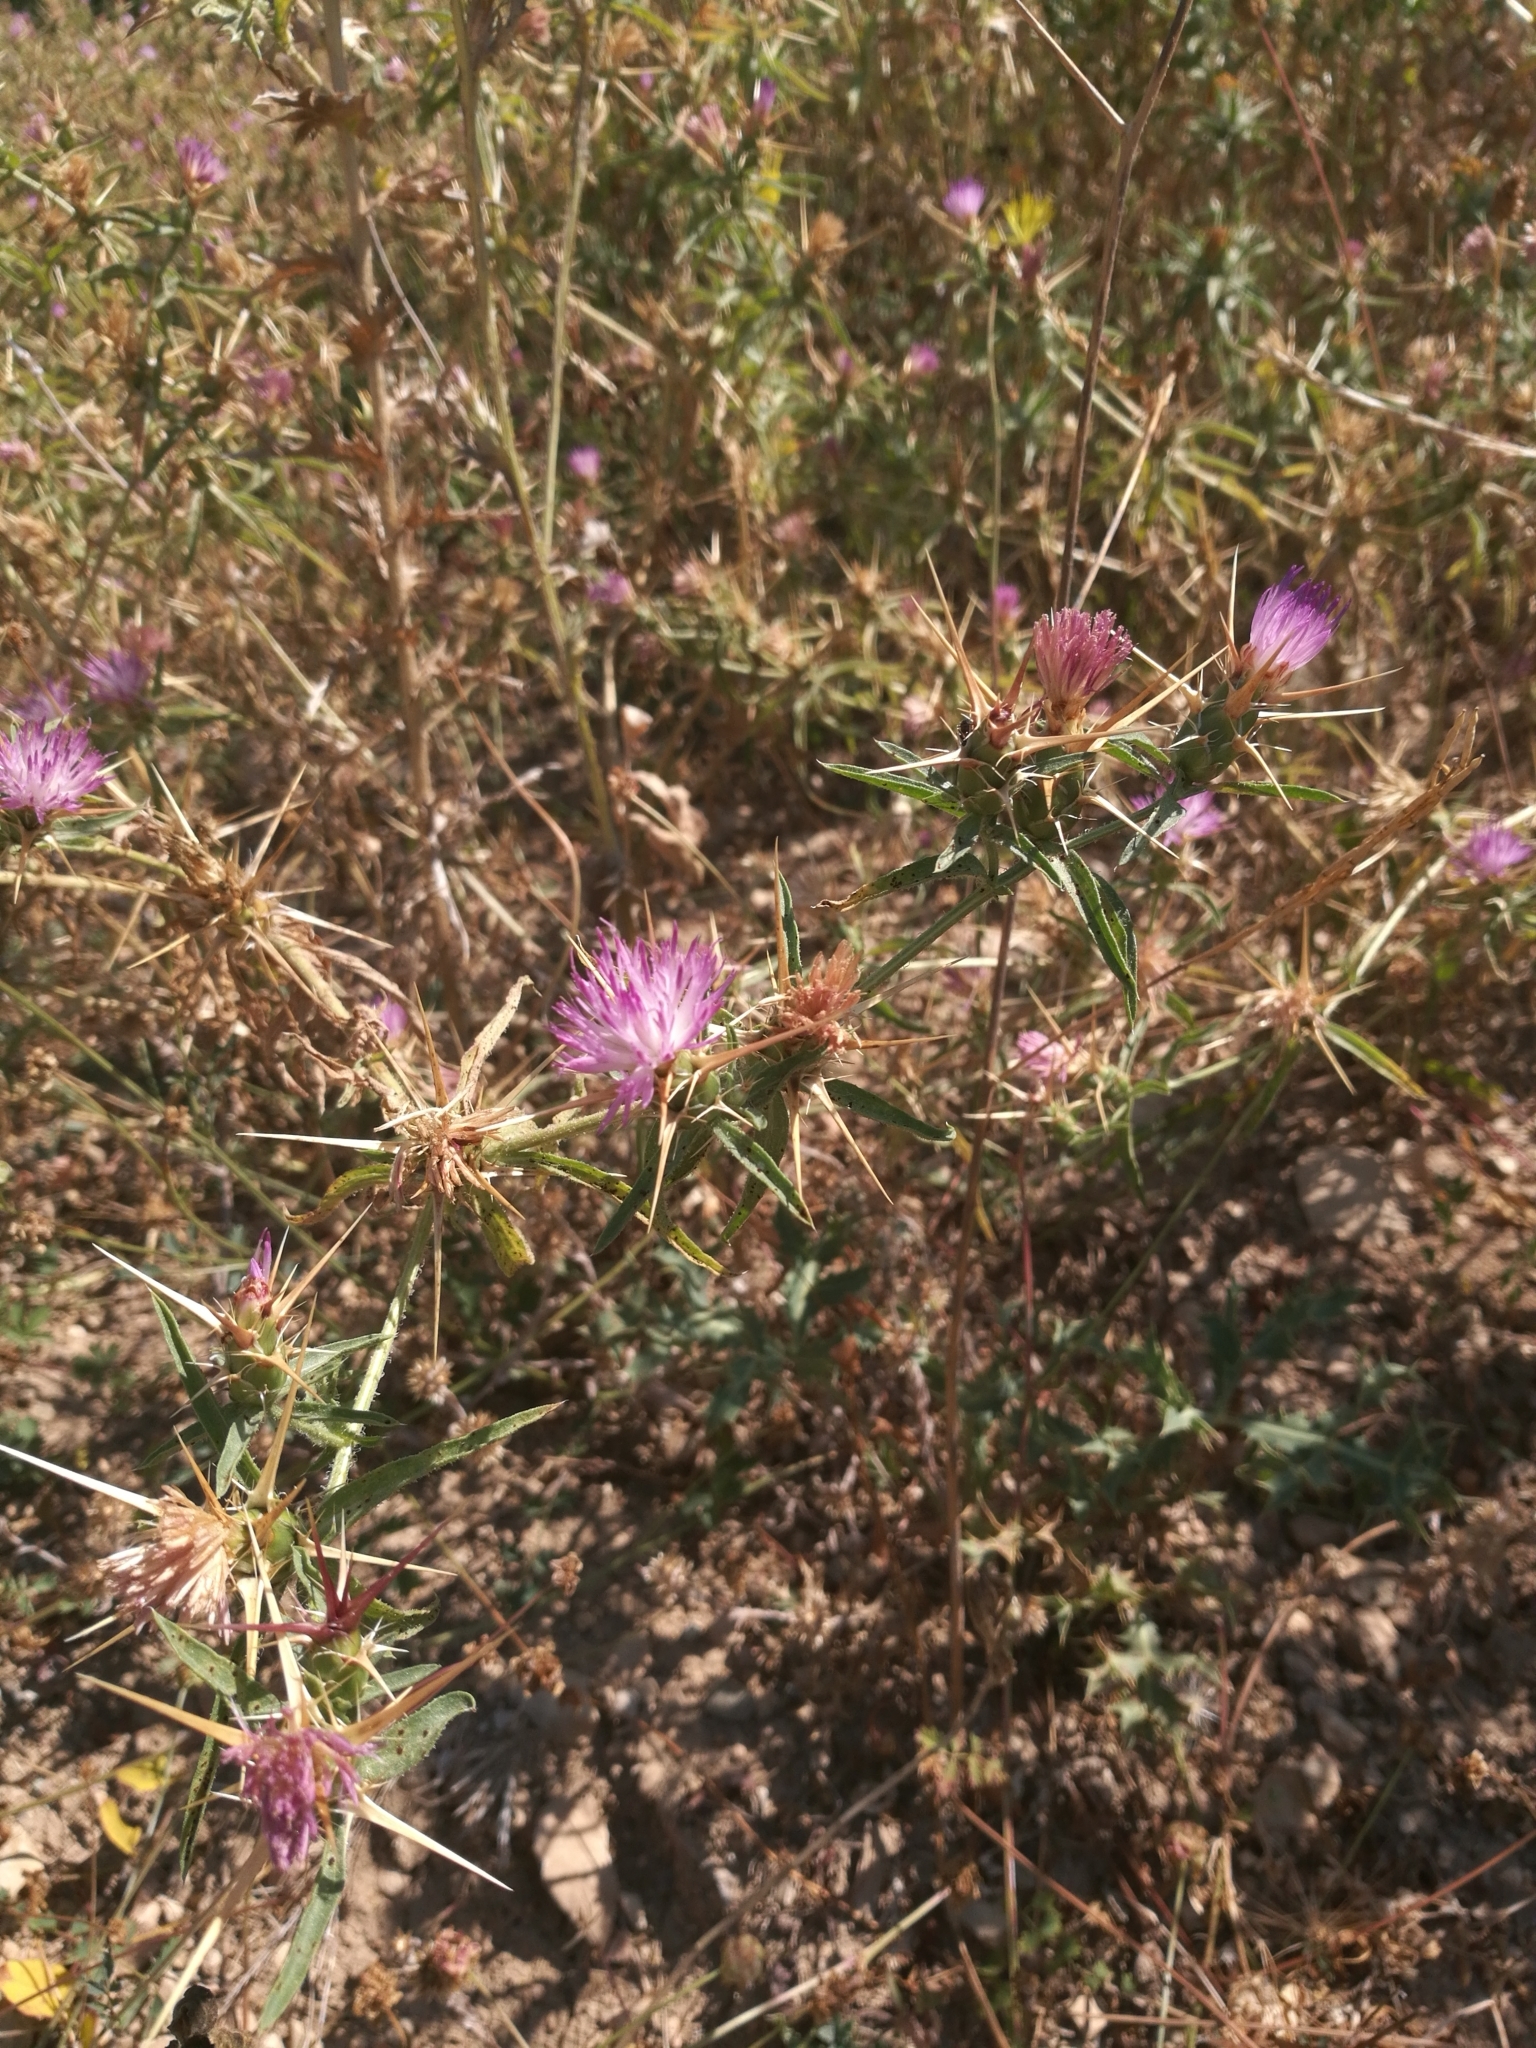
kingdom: Plantae
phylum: Tracheophyta
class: Magnoliopsida
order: Asterales
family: Asteraceae
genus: Centaurea
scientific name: Centaurea calcitrapa
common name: Red star-thistle
